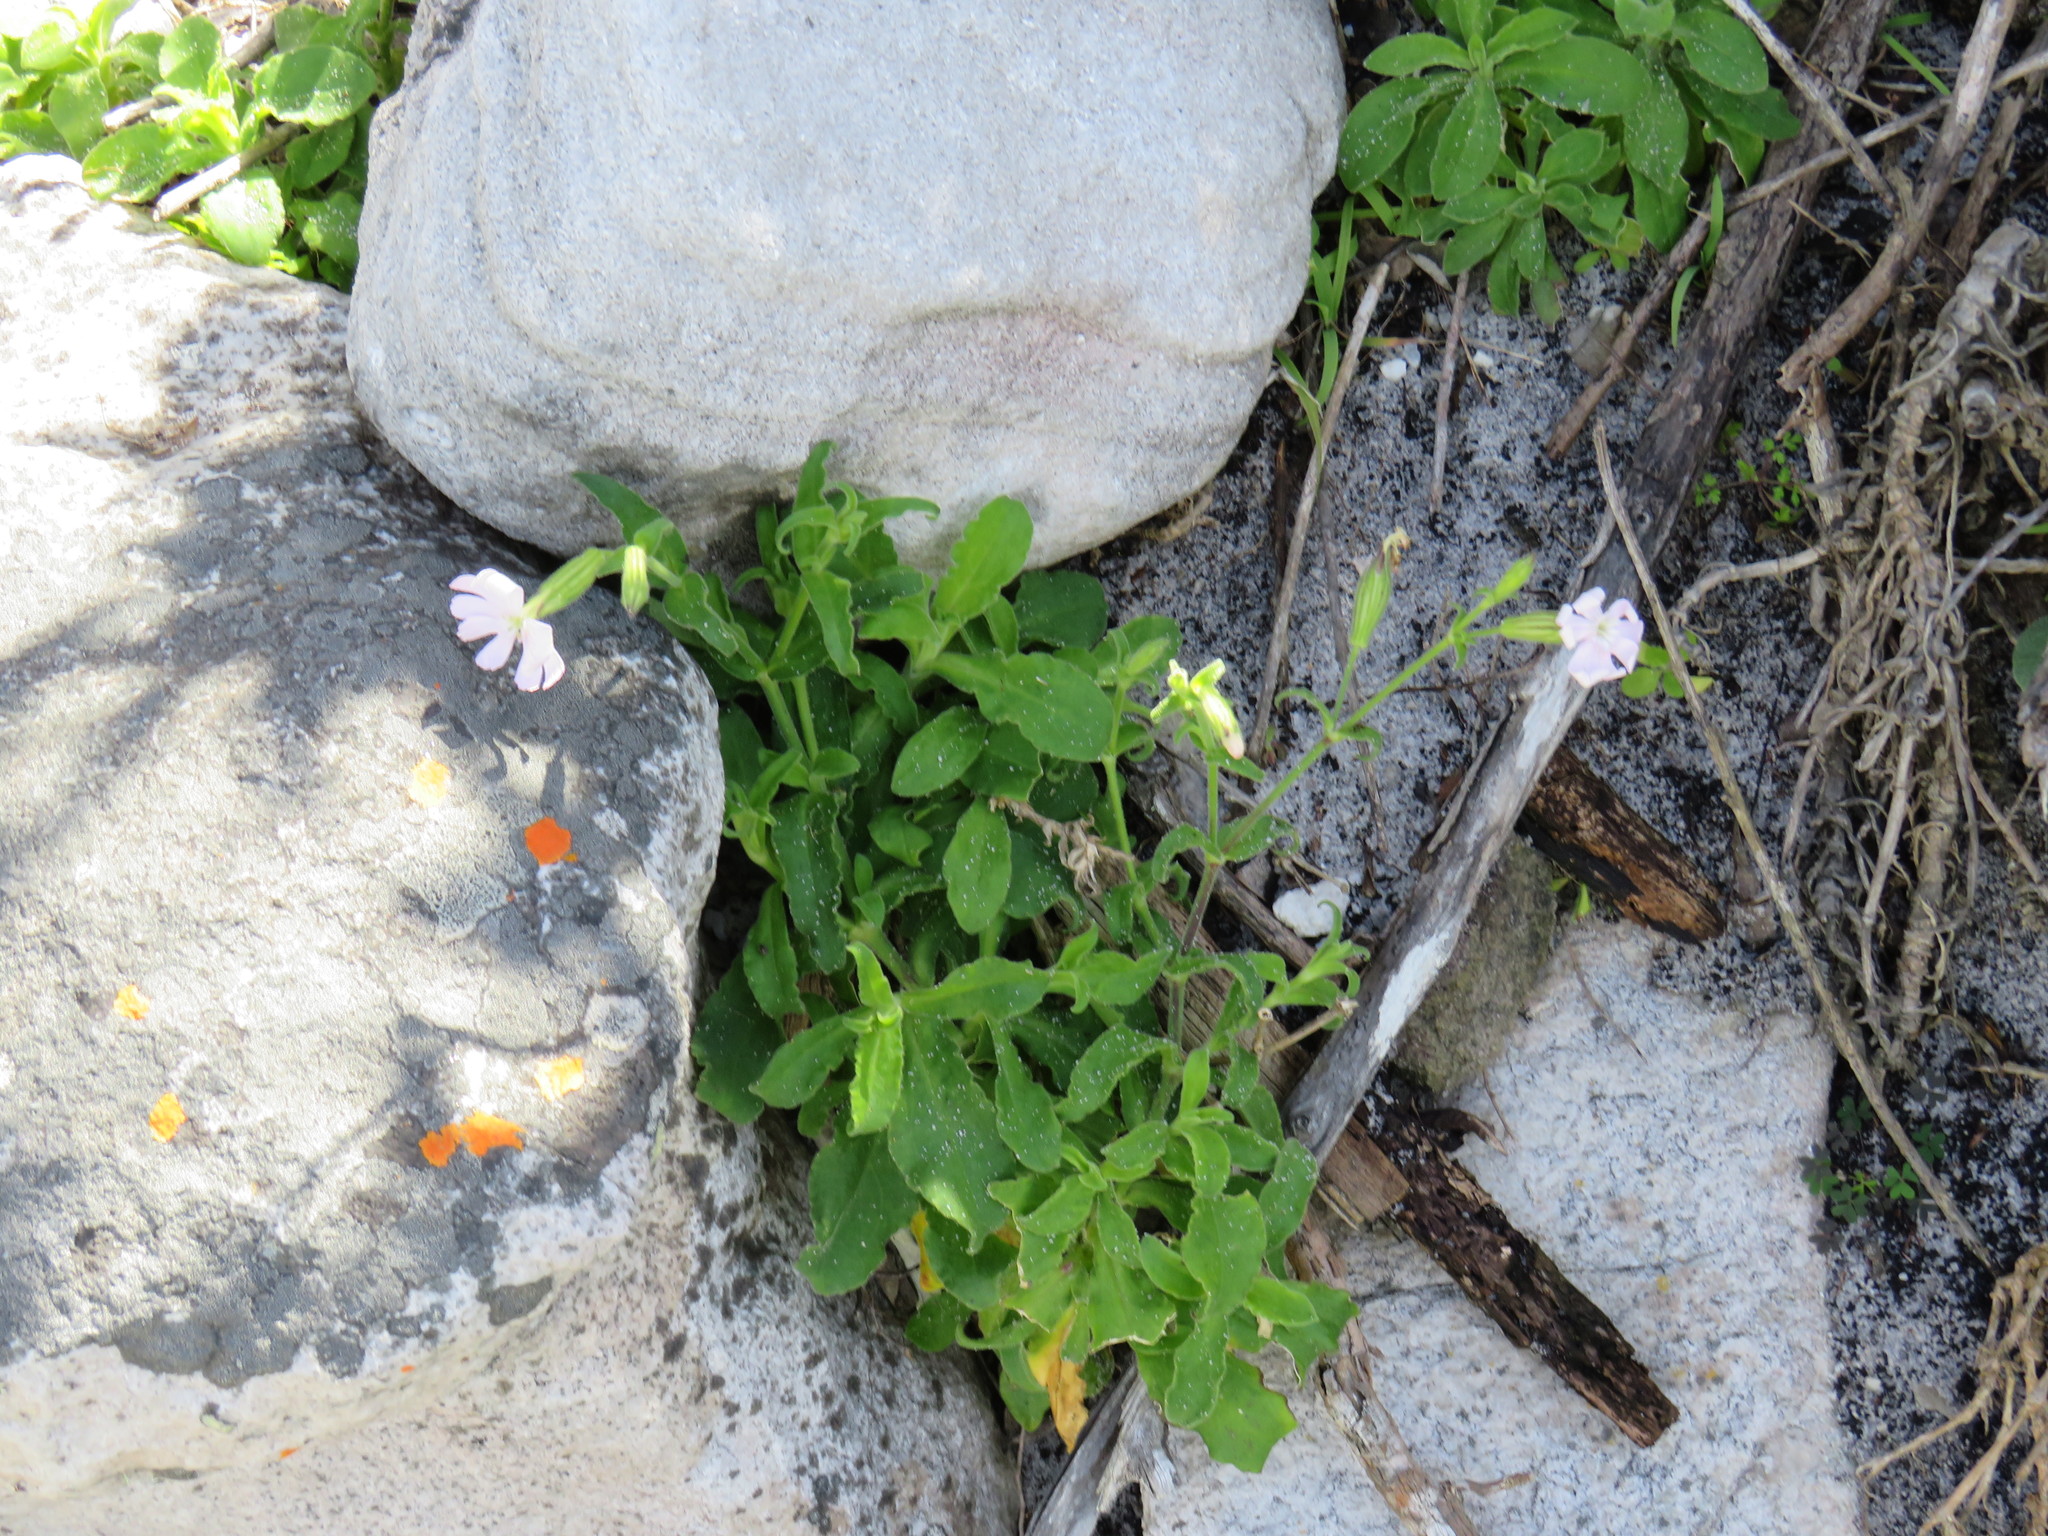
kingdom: Plantae
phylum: Tracheophyta
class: Magnoliopsida
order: Caryophyllales
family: Caryophyllaceae
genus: Silene
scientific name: Silene undulata
